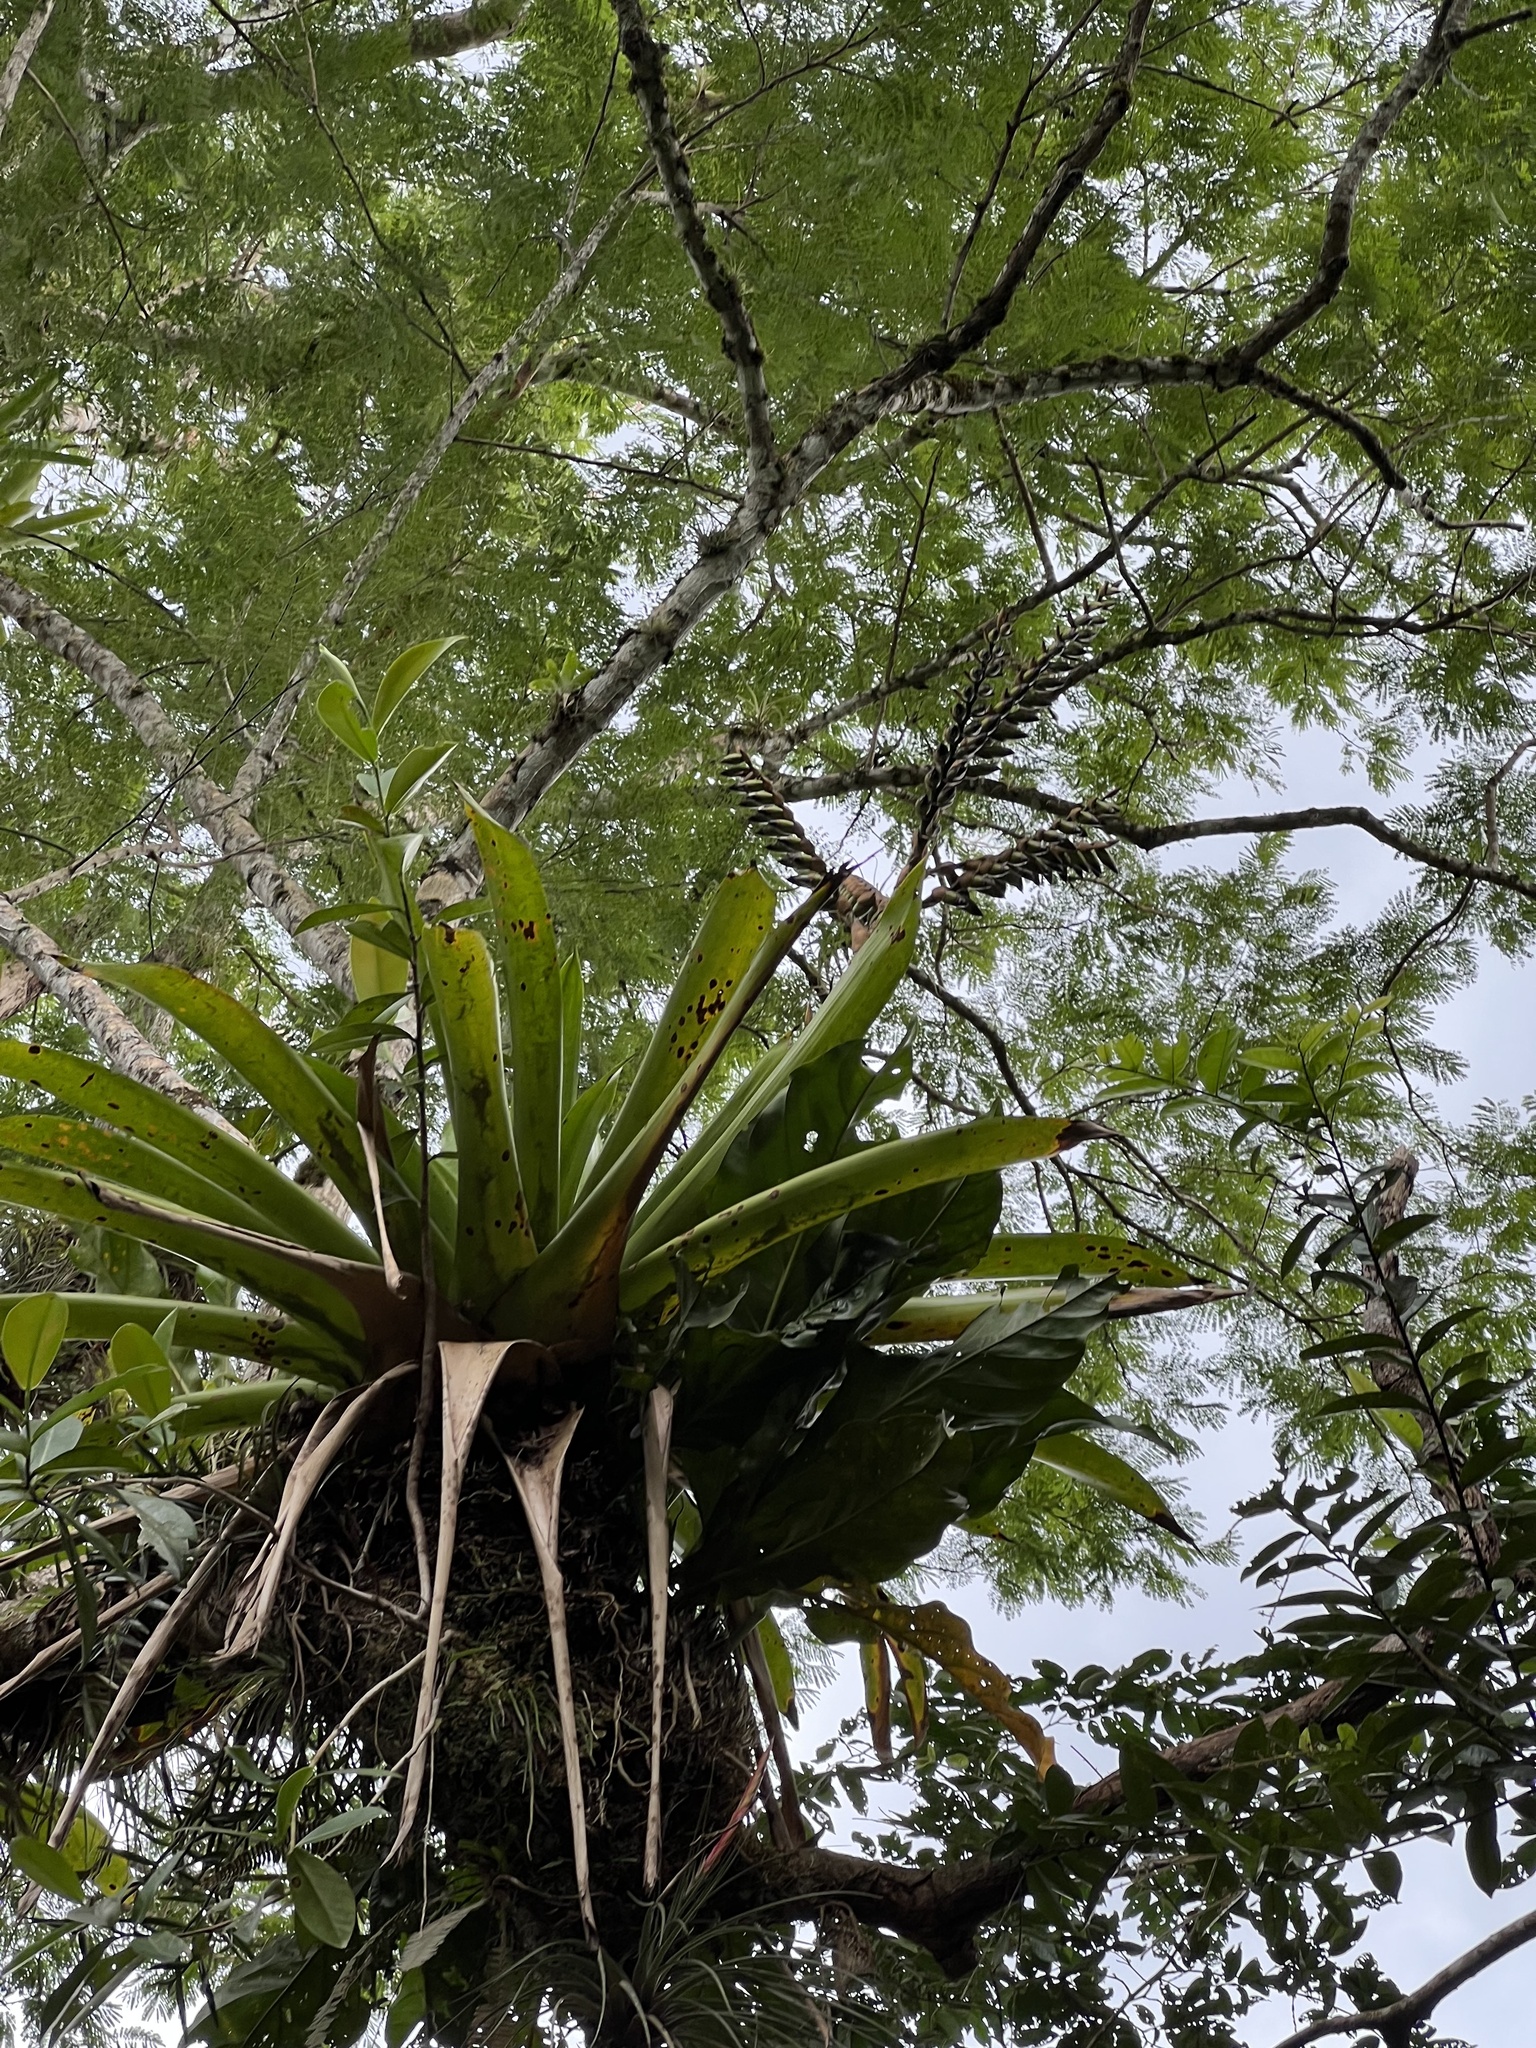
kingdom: Plantae
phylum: Tracheophyta
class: Liliopsida
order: Poales
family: Bromeliaceae
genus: Werauhia
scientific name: Werauhia sanguinolenta
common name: Bromeliad
